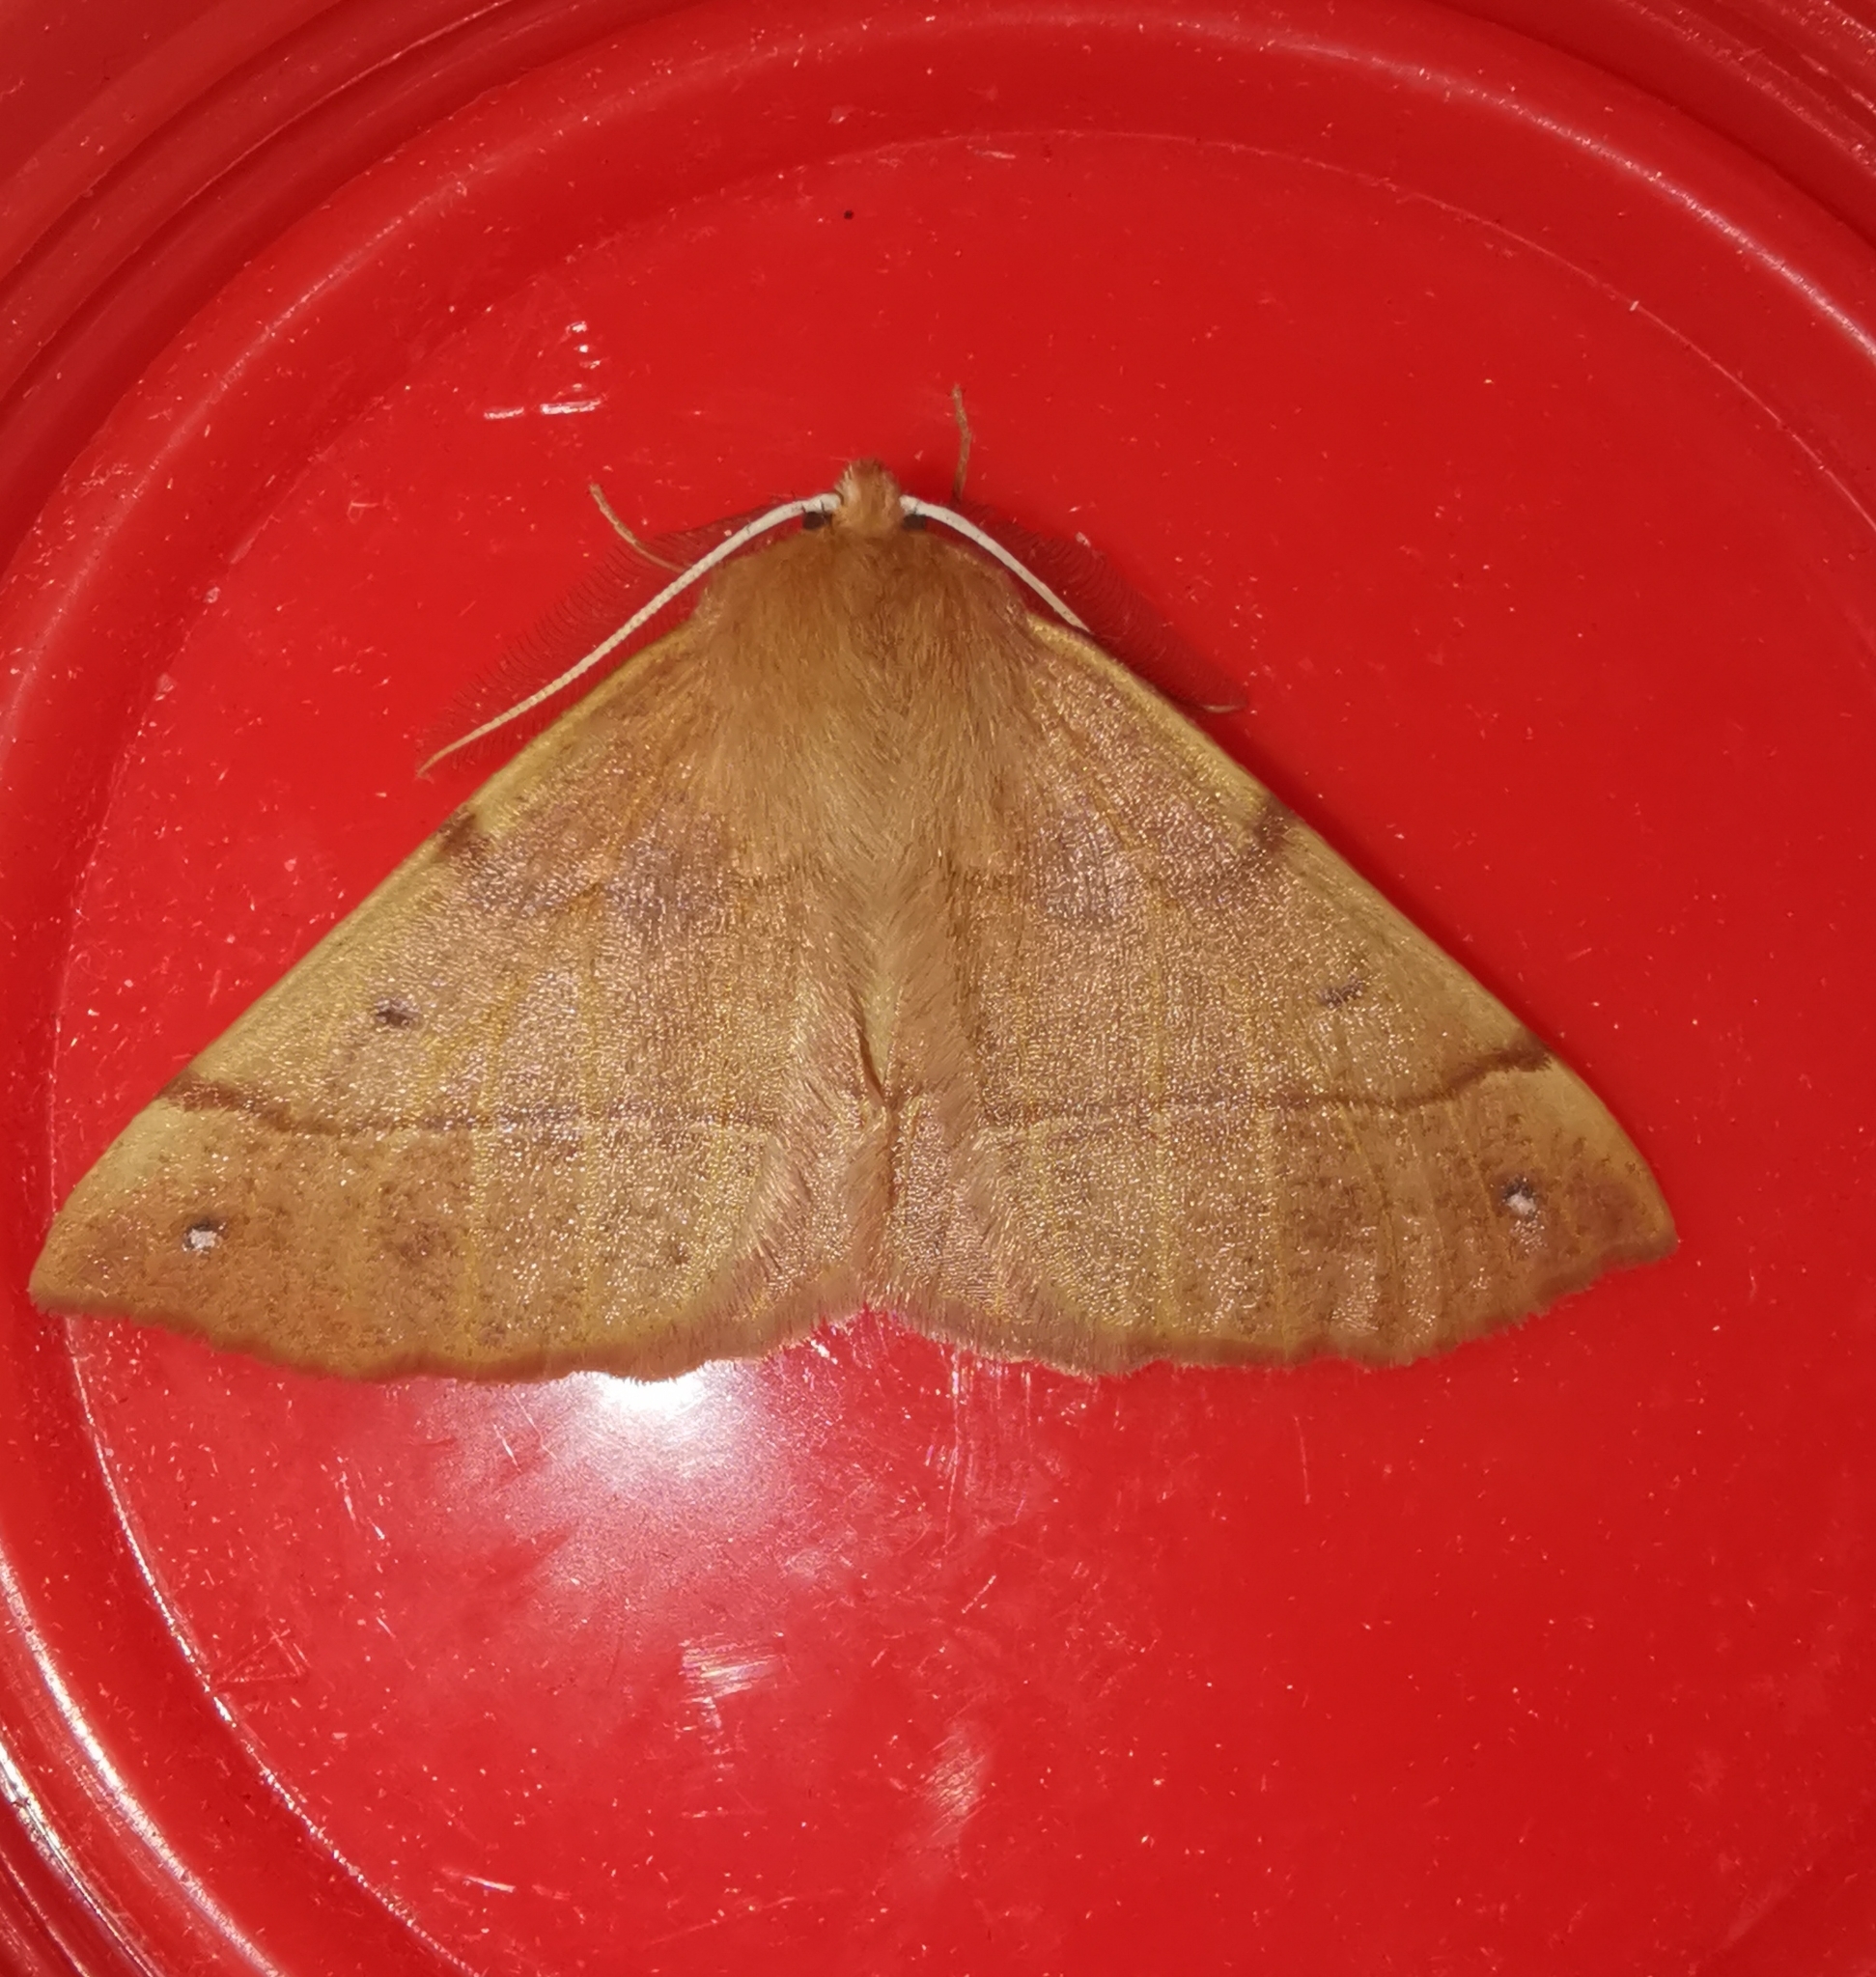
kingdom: Animalia
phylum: Arthropoda
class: Insecta
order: Lepidoptera
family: Geometridae
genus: Colotois
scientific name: Colotois pennaria
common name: Feathered thorn
